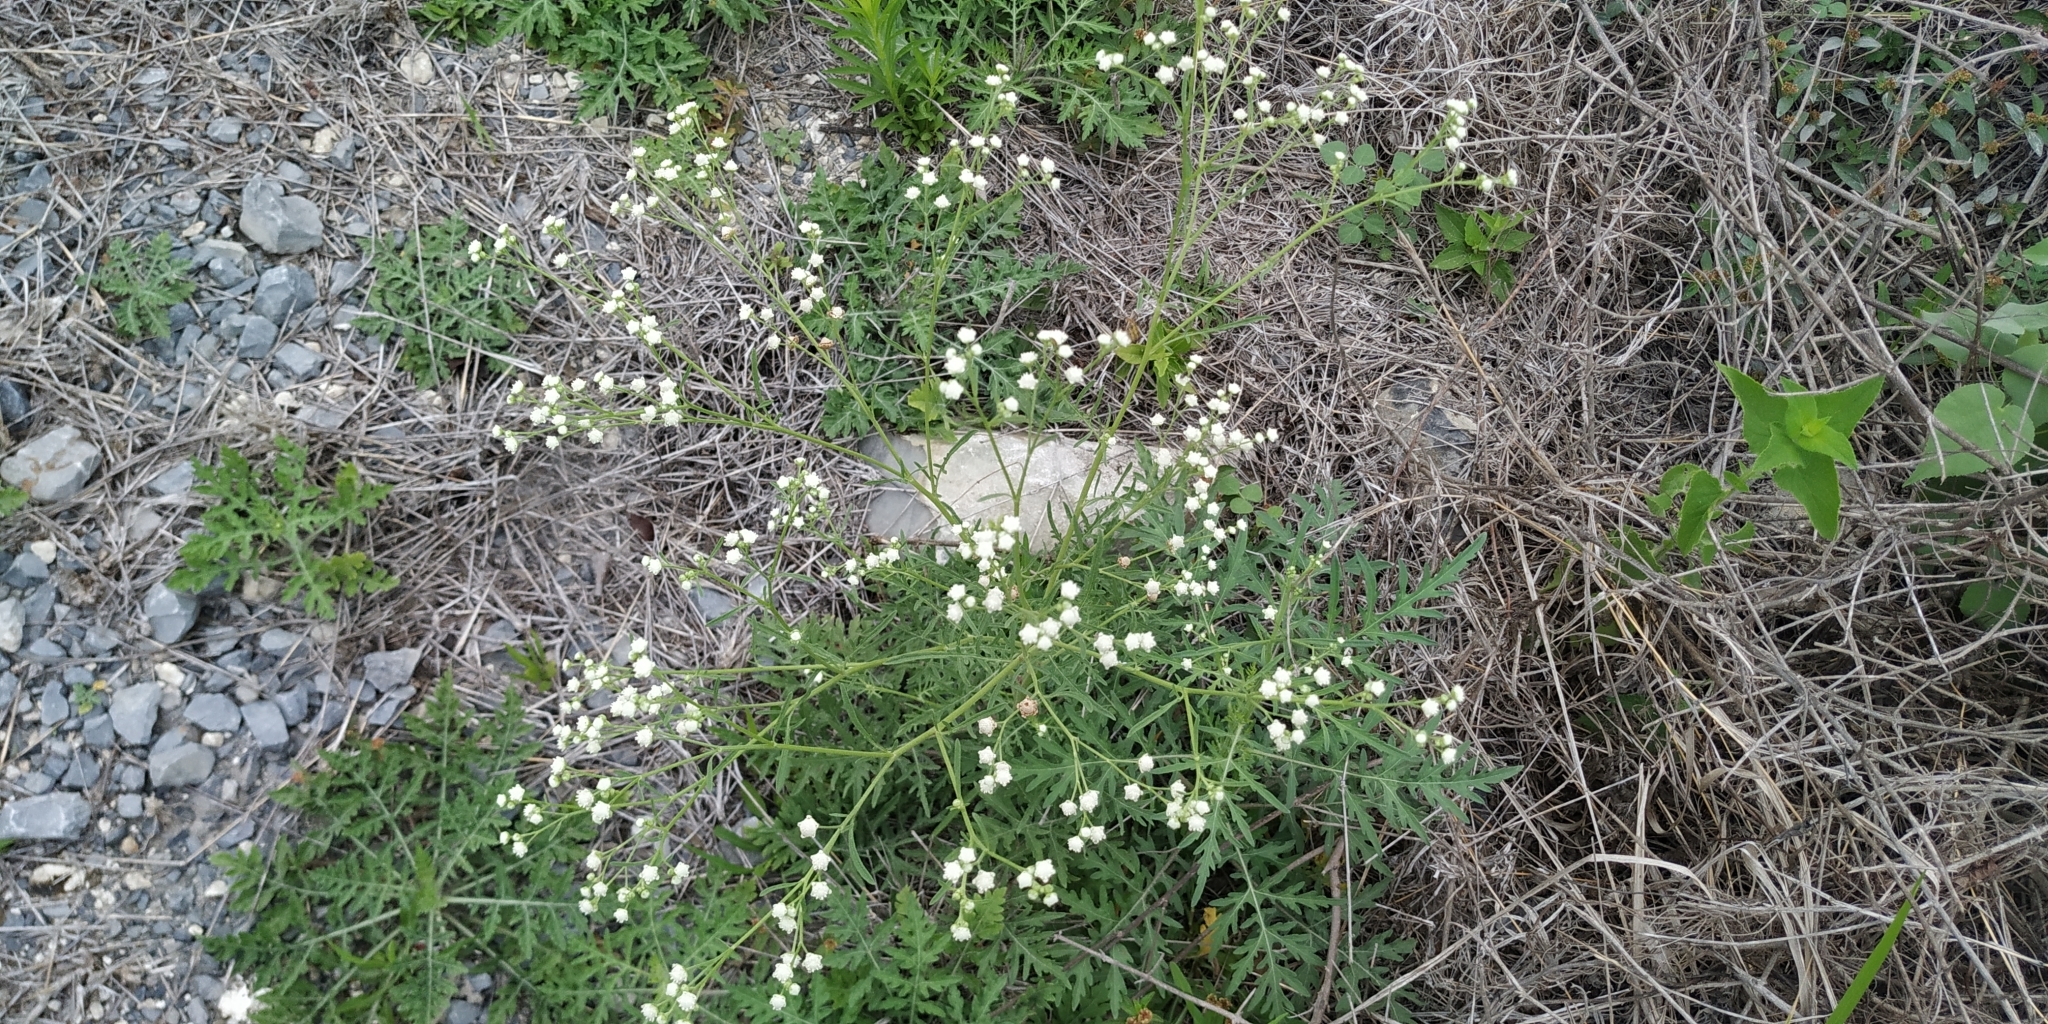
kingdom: Plantae
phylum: Tracheophyta
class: Magnoliopsida
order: Asterales
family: Asteraceae
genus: Parthenium
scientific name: Parthenium hysterophorus
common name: Santa maria feverfew
